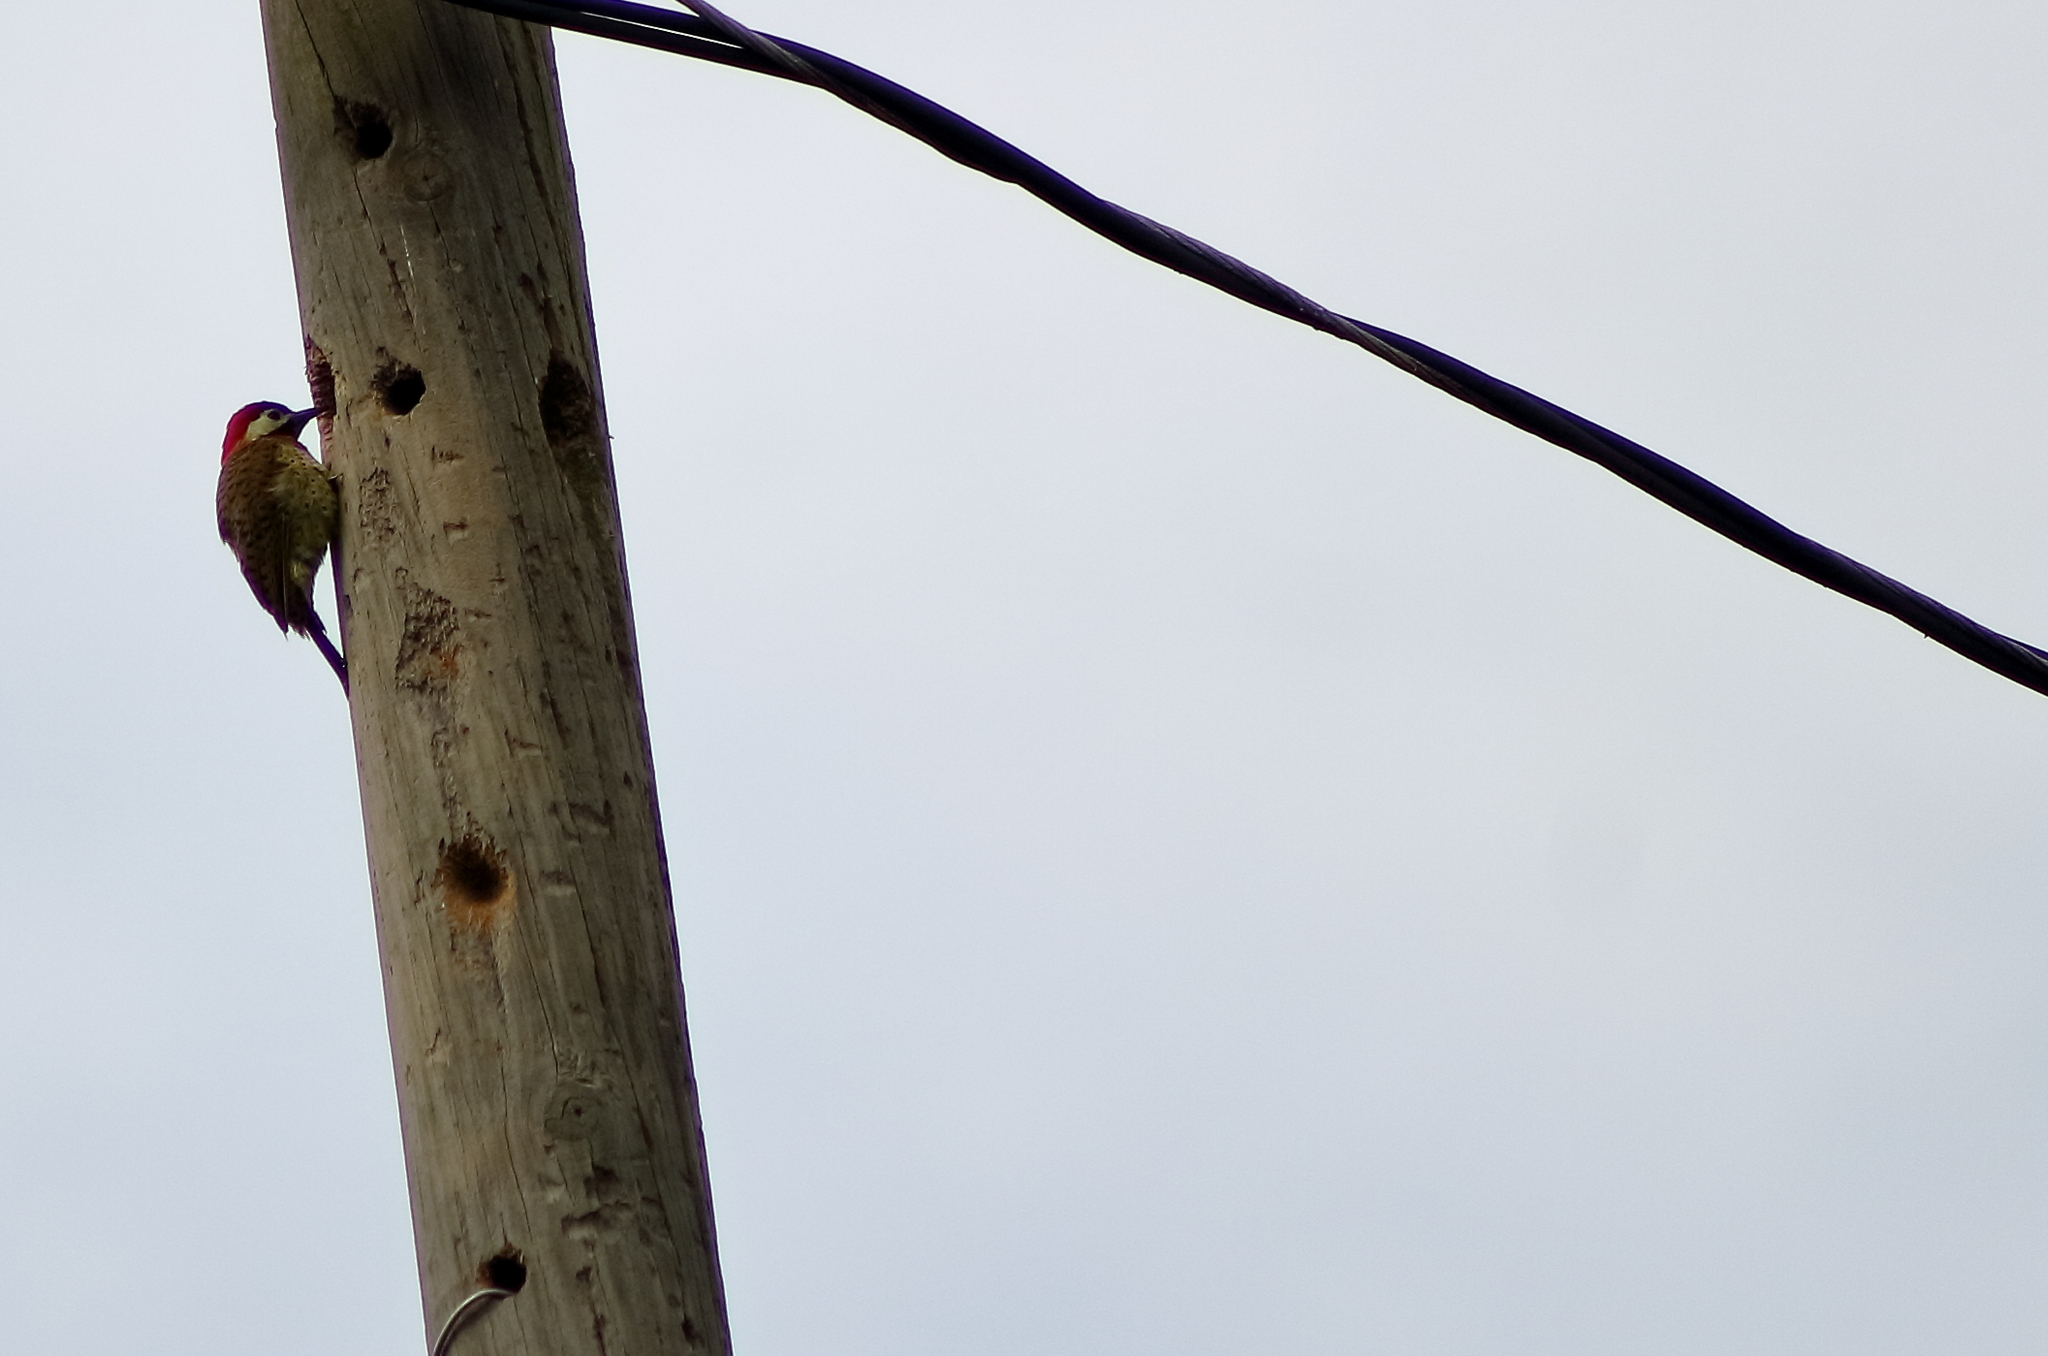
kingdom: Animalia
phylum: Chordata
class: Aves
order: Piciformes
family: Picidae
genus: Colaptes
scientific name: Colaptes punctigula
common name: Spot-breasted woodpecker
